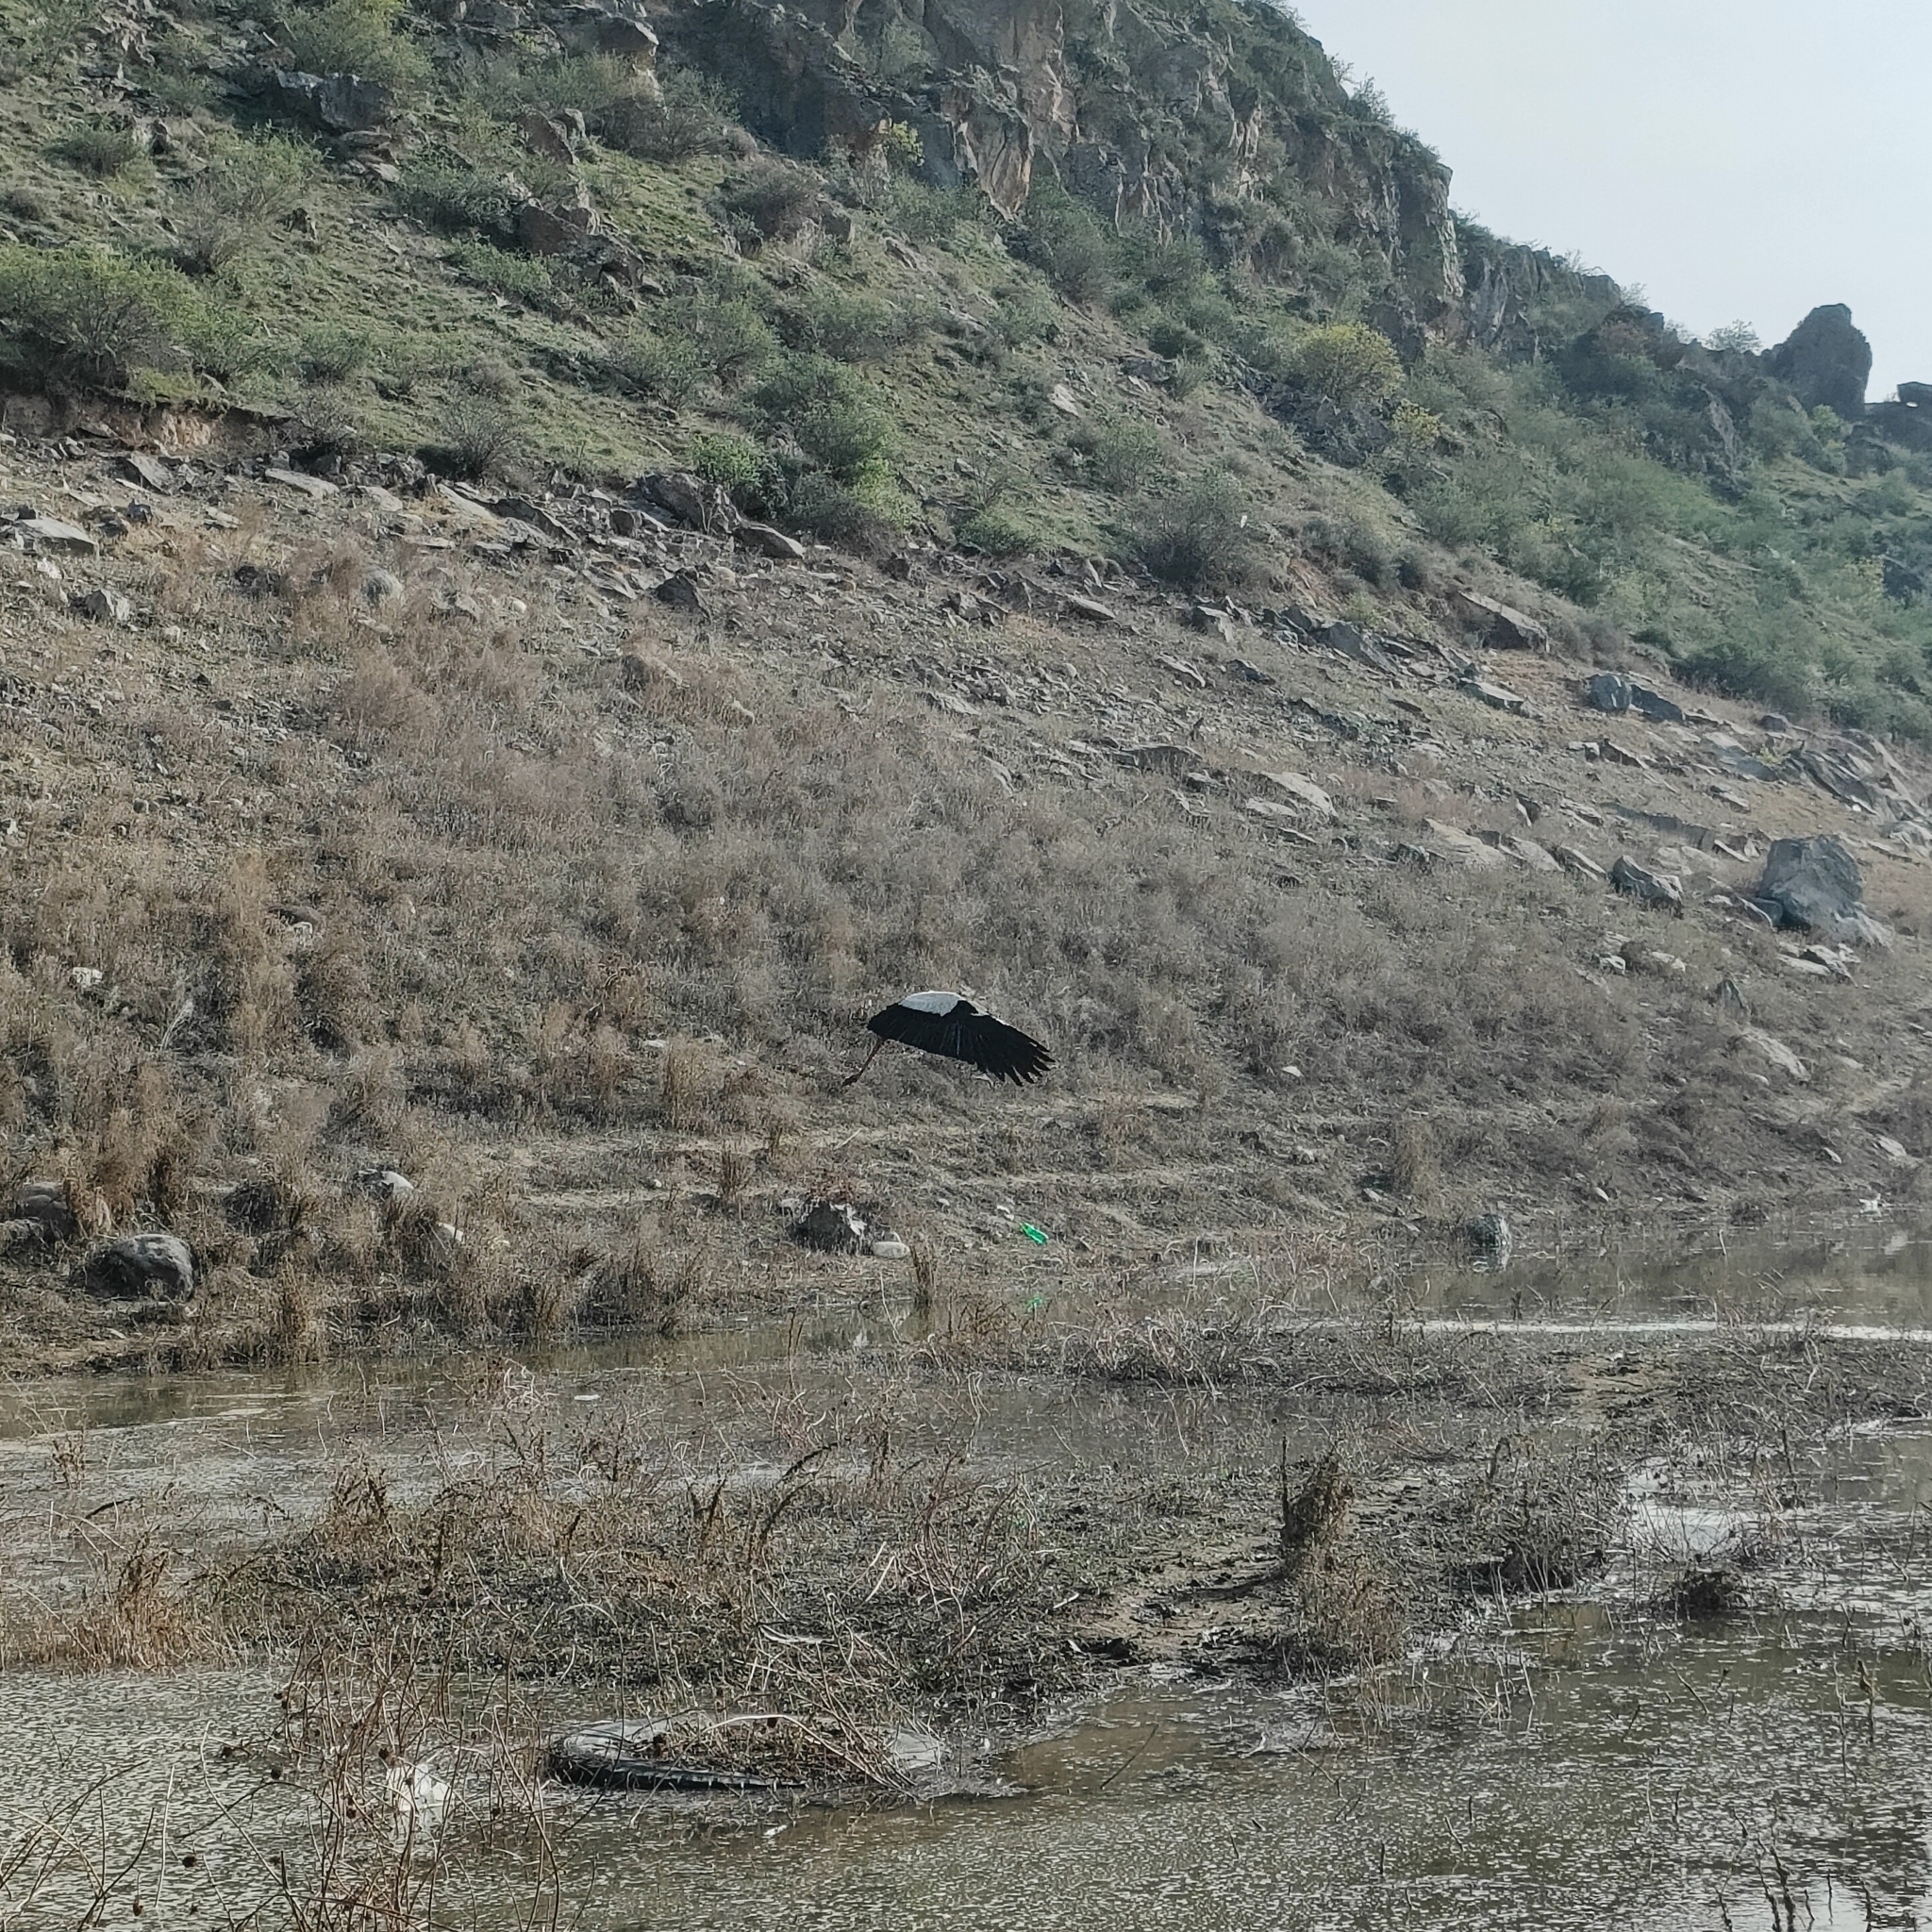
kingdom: Animalia
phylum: Chordata
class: Aves
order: Ciconiiformes
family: Ciconiidae
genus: Ciconia
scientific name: Ciconia ciconia
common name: White stork
